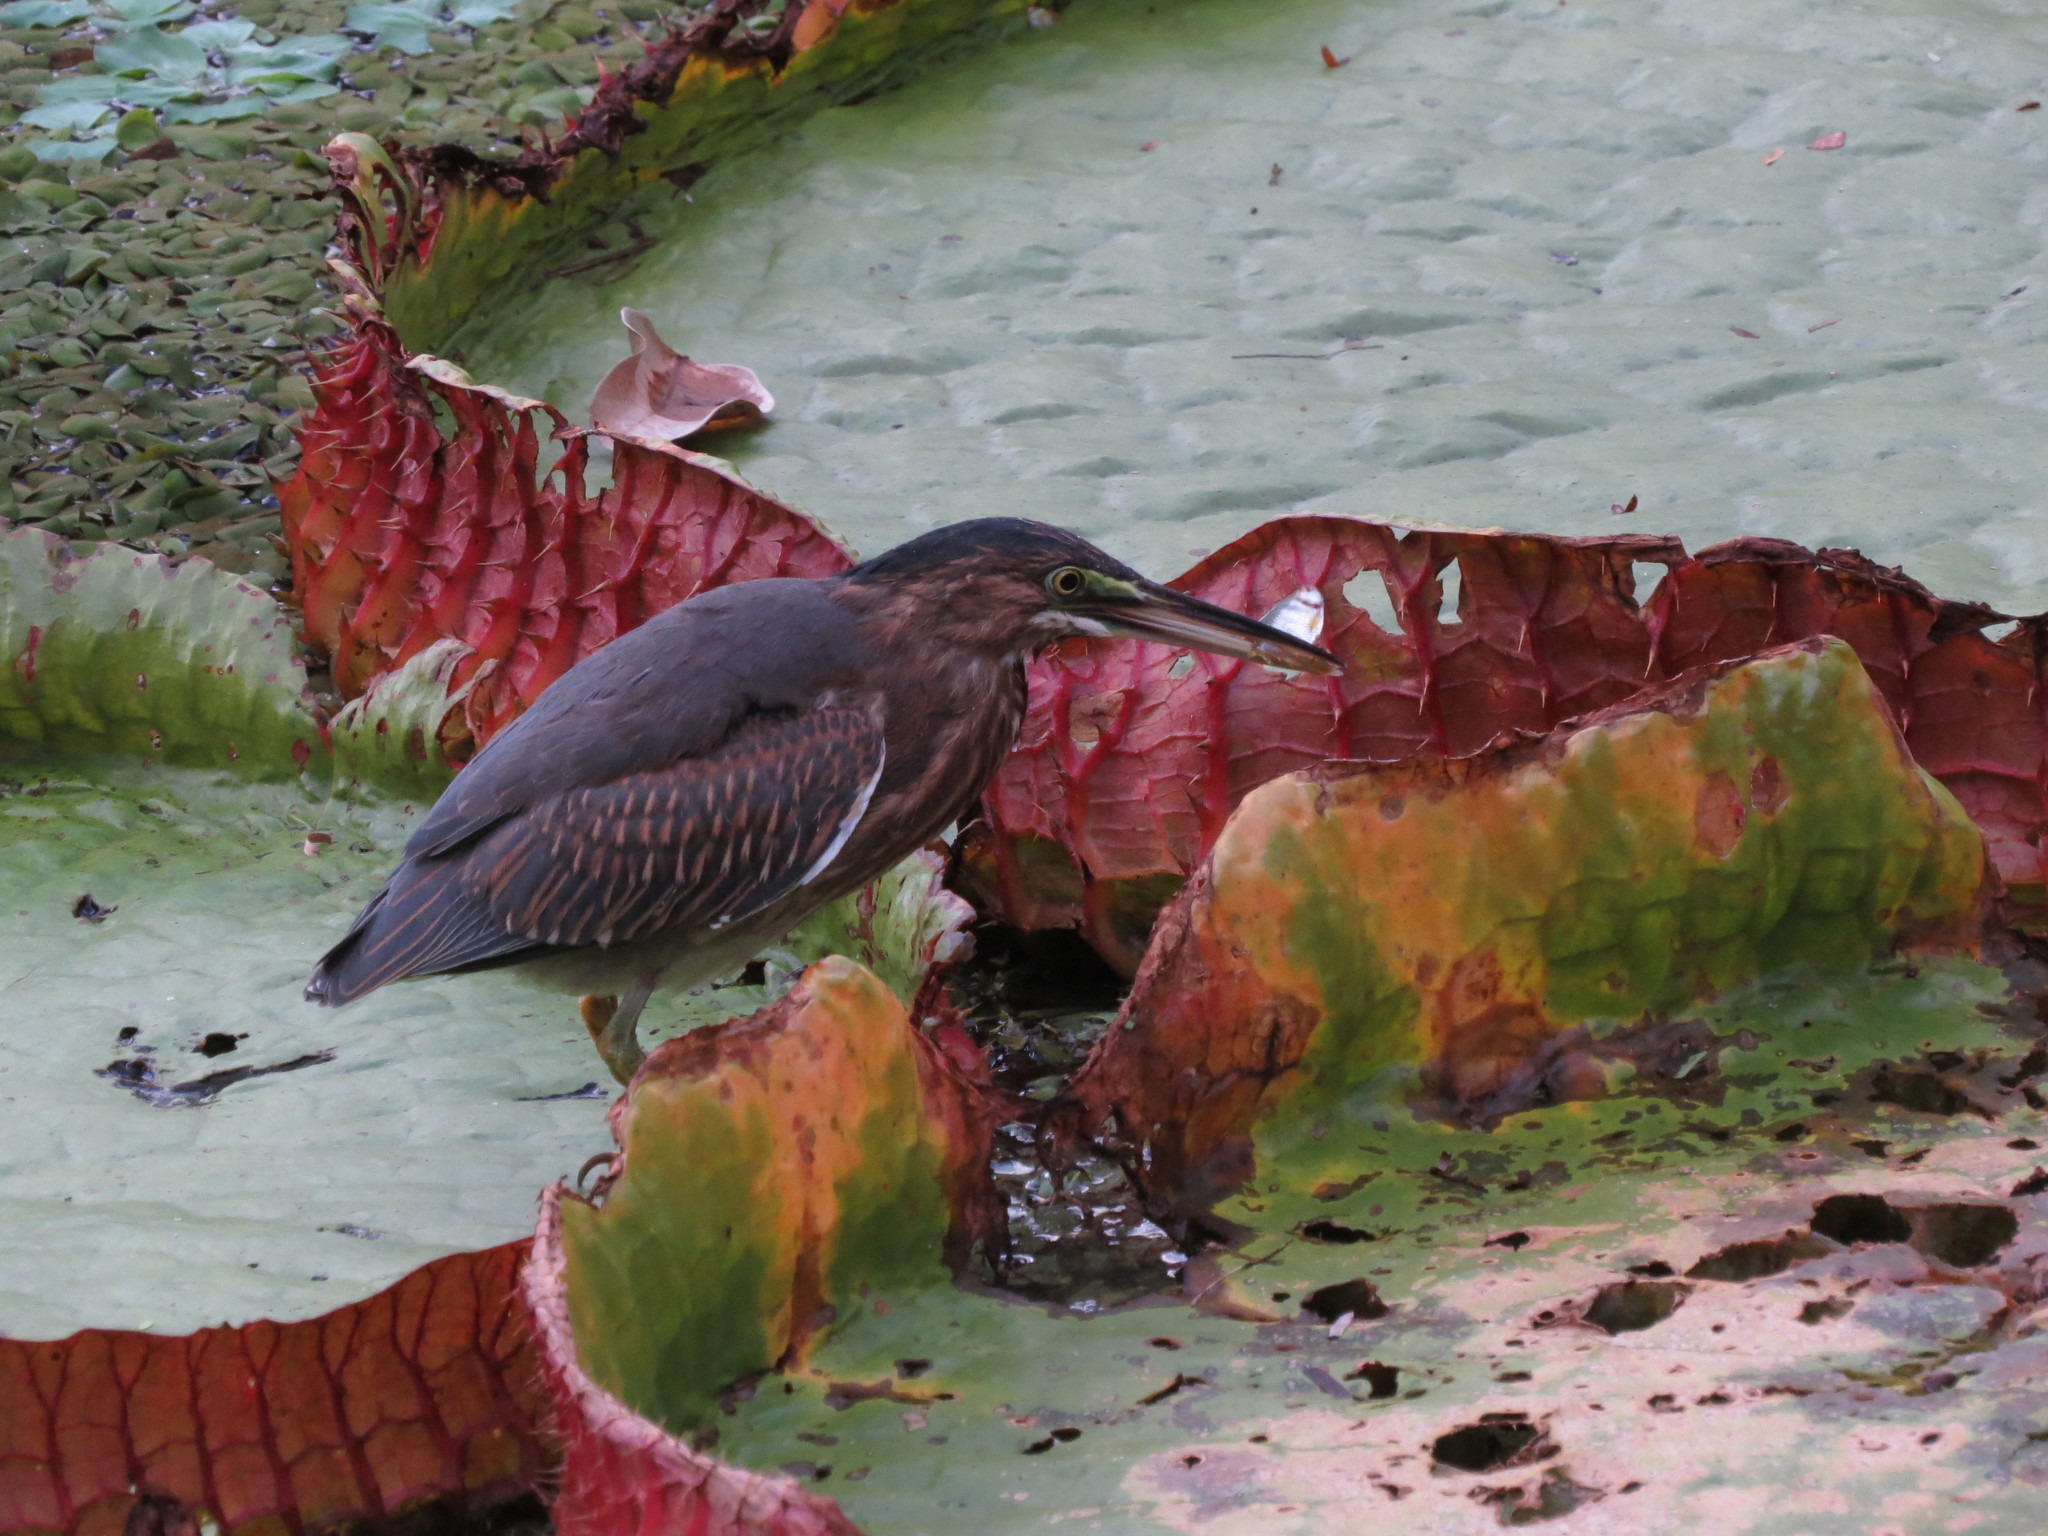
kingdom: Animalia
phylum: Chordata
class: Aves
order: Pelecaniformes
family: Ardeidae
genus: Butorides
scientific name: Butorides striata
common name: Striated heron
